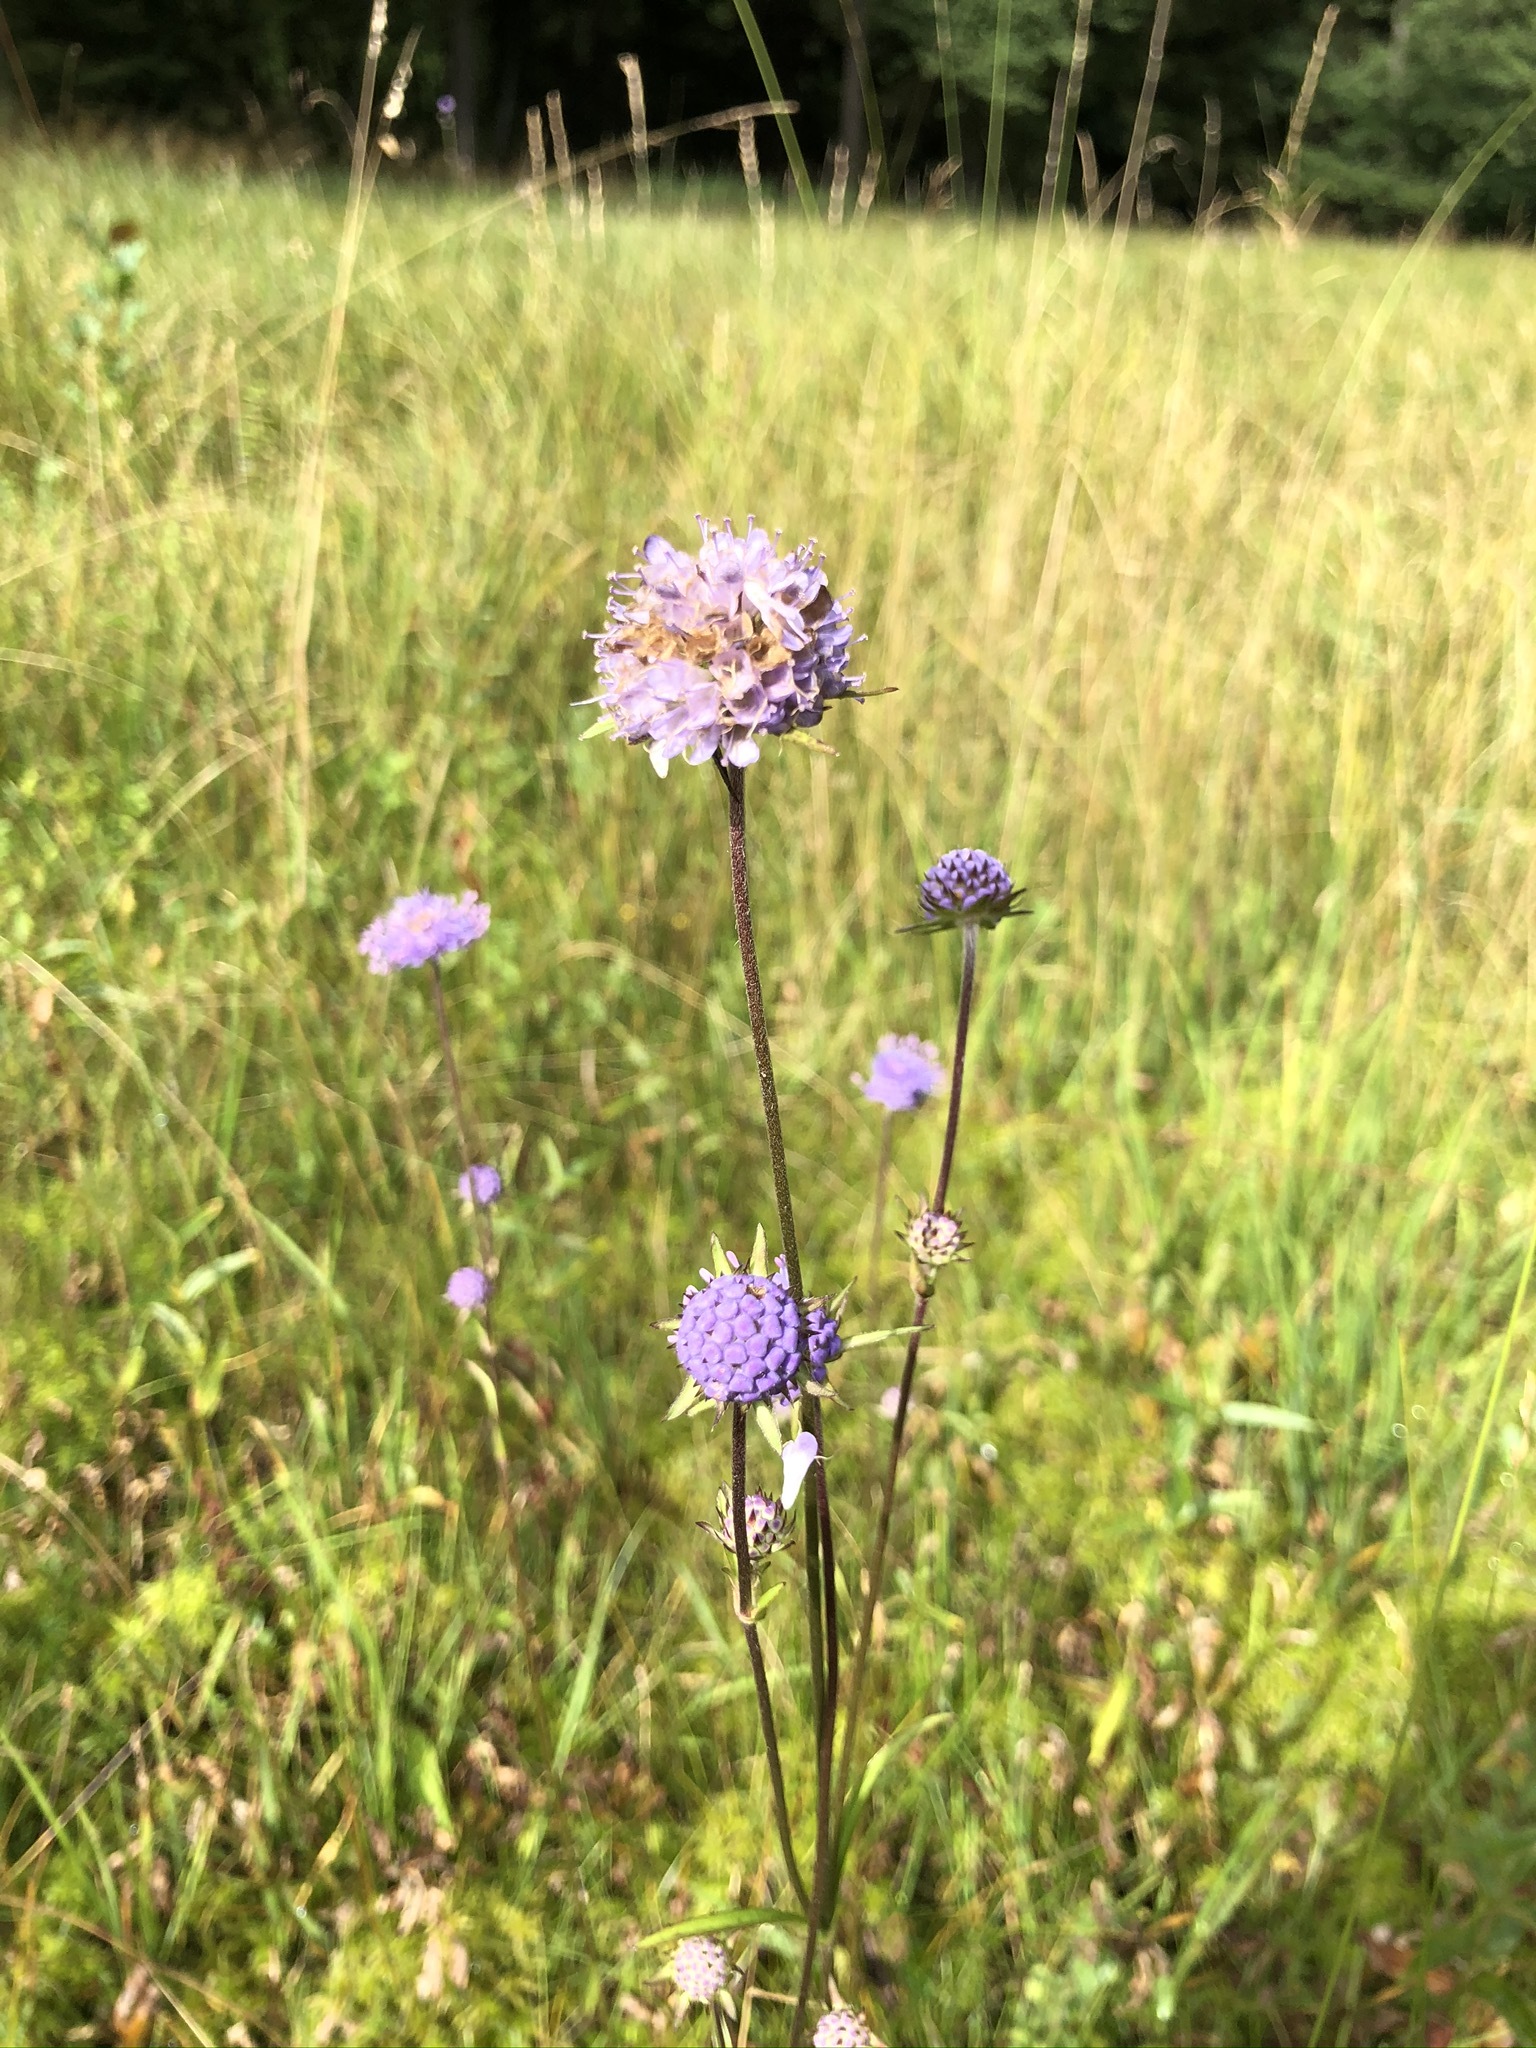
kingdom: Plantae
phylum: Tracheophyta
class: Magnoliopsida
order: Dipsacales
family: Caprifoliaceae
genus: Succisa
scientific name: Succisa pratensis
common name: Devil's-bit
